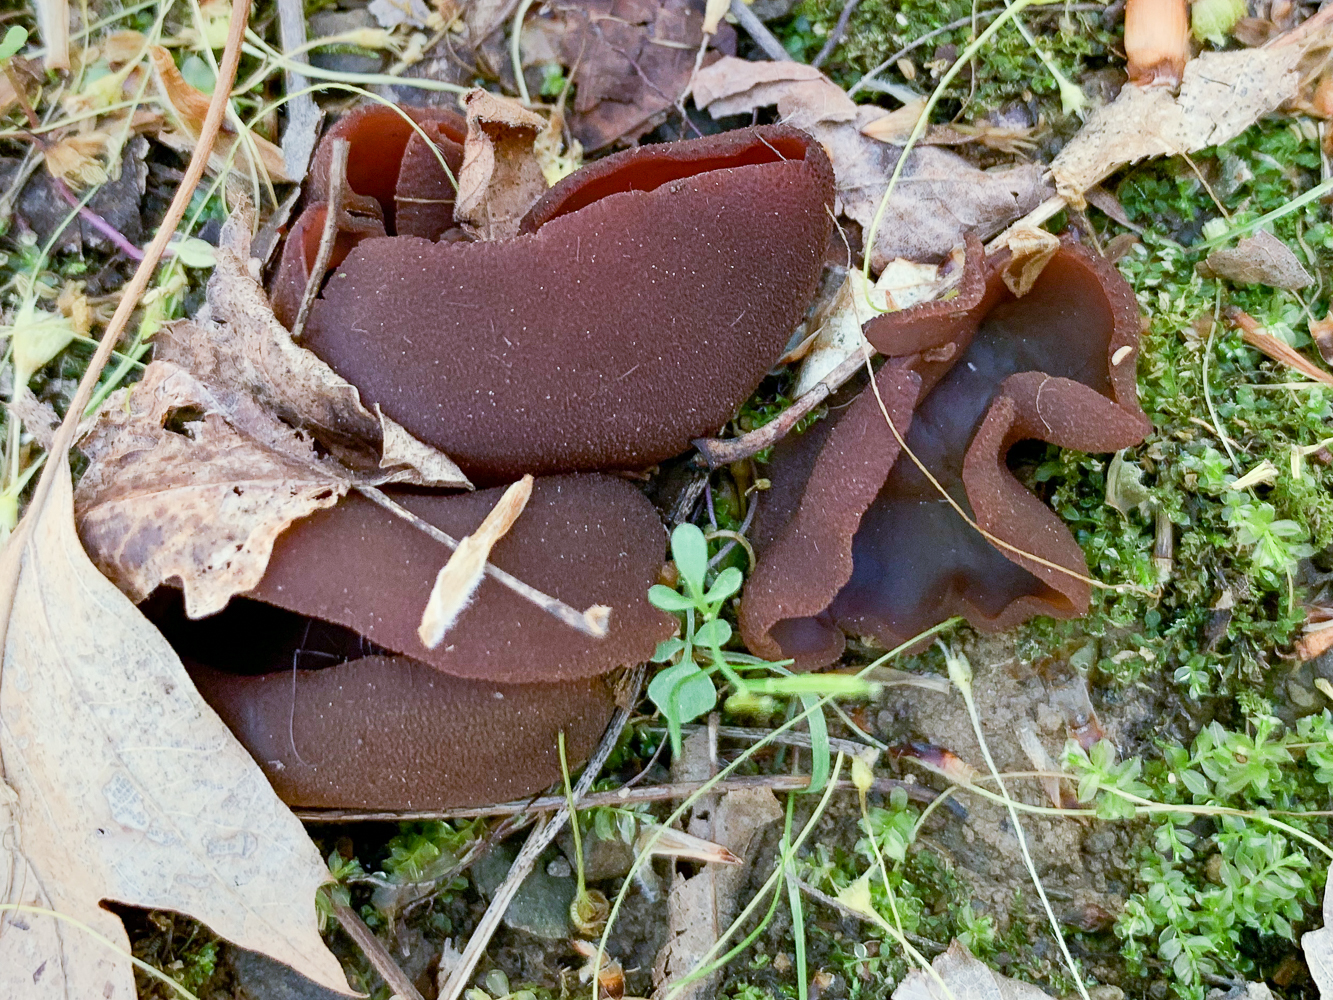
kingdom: Fungi
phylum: Ascomycota
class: Pezizomycetes
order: Pezizales
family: Pezizaceae
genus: Phylloscypha
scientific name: Phylloscypha phyllogena
